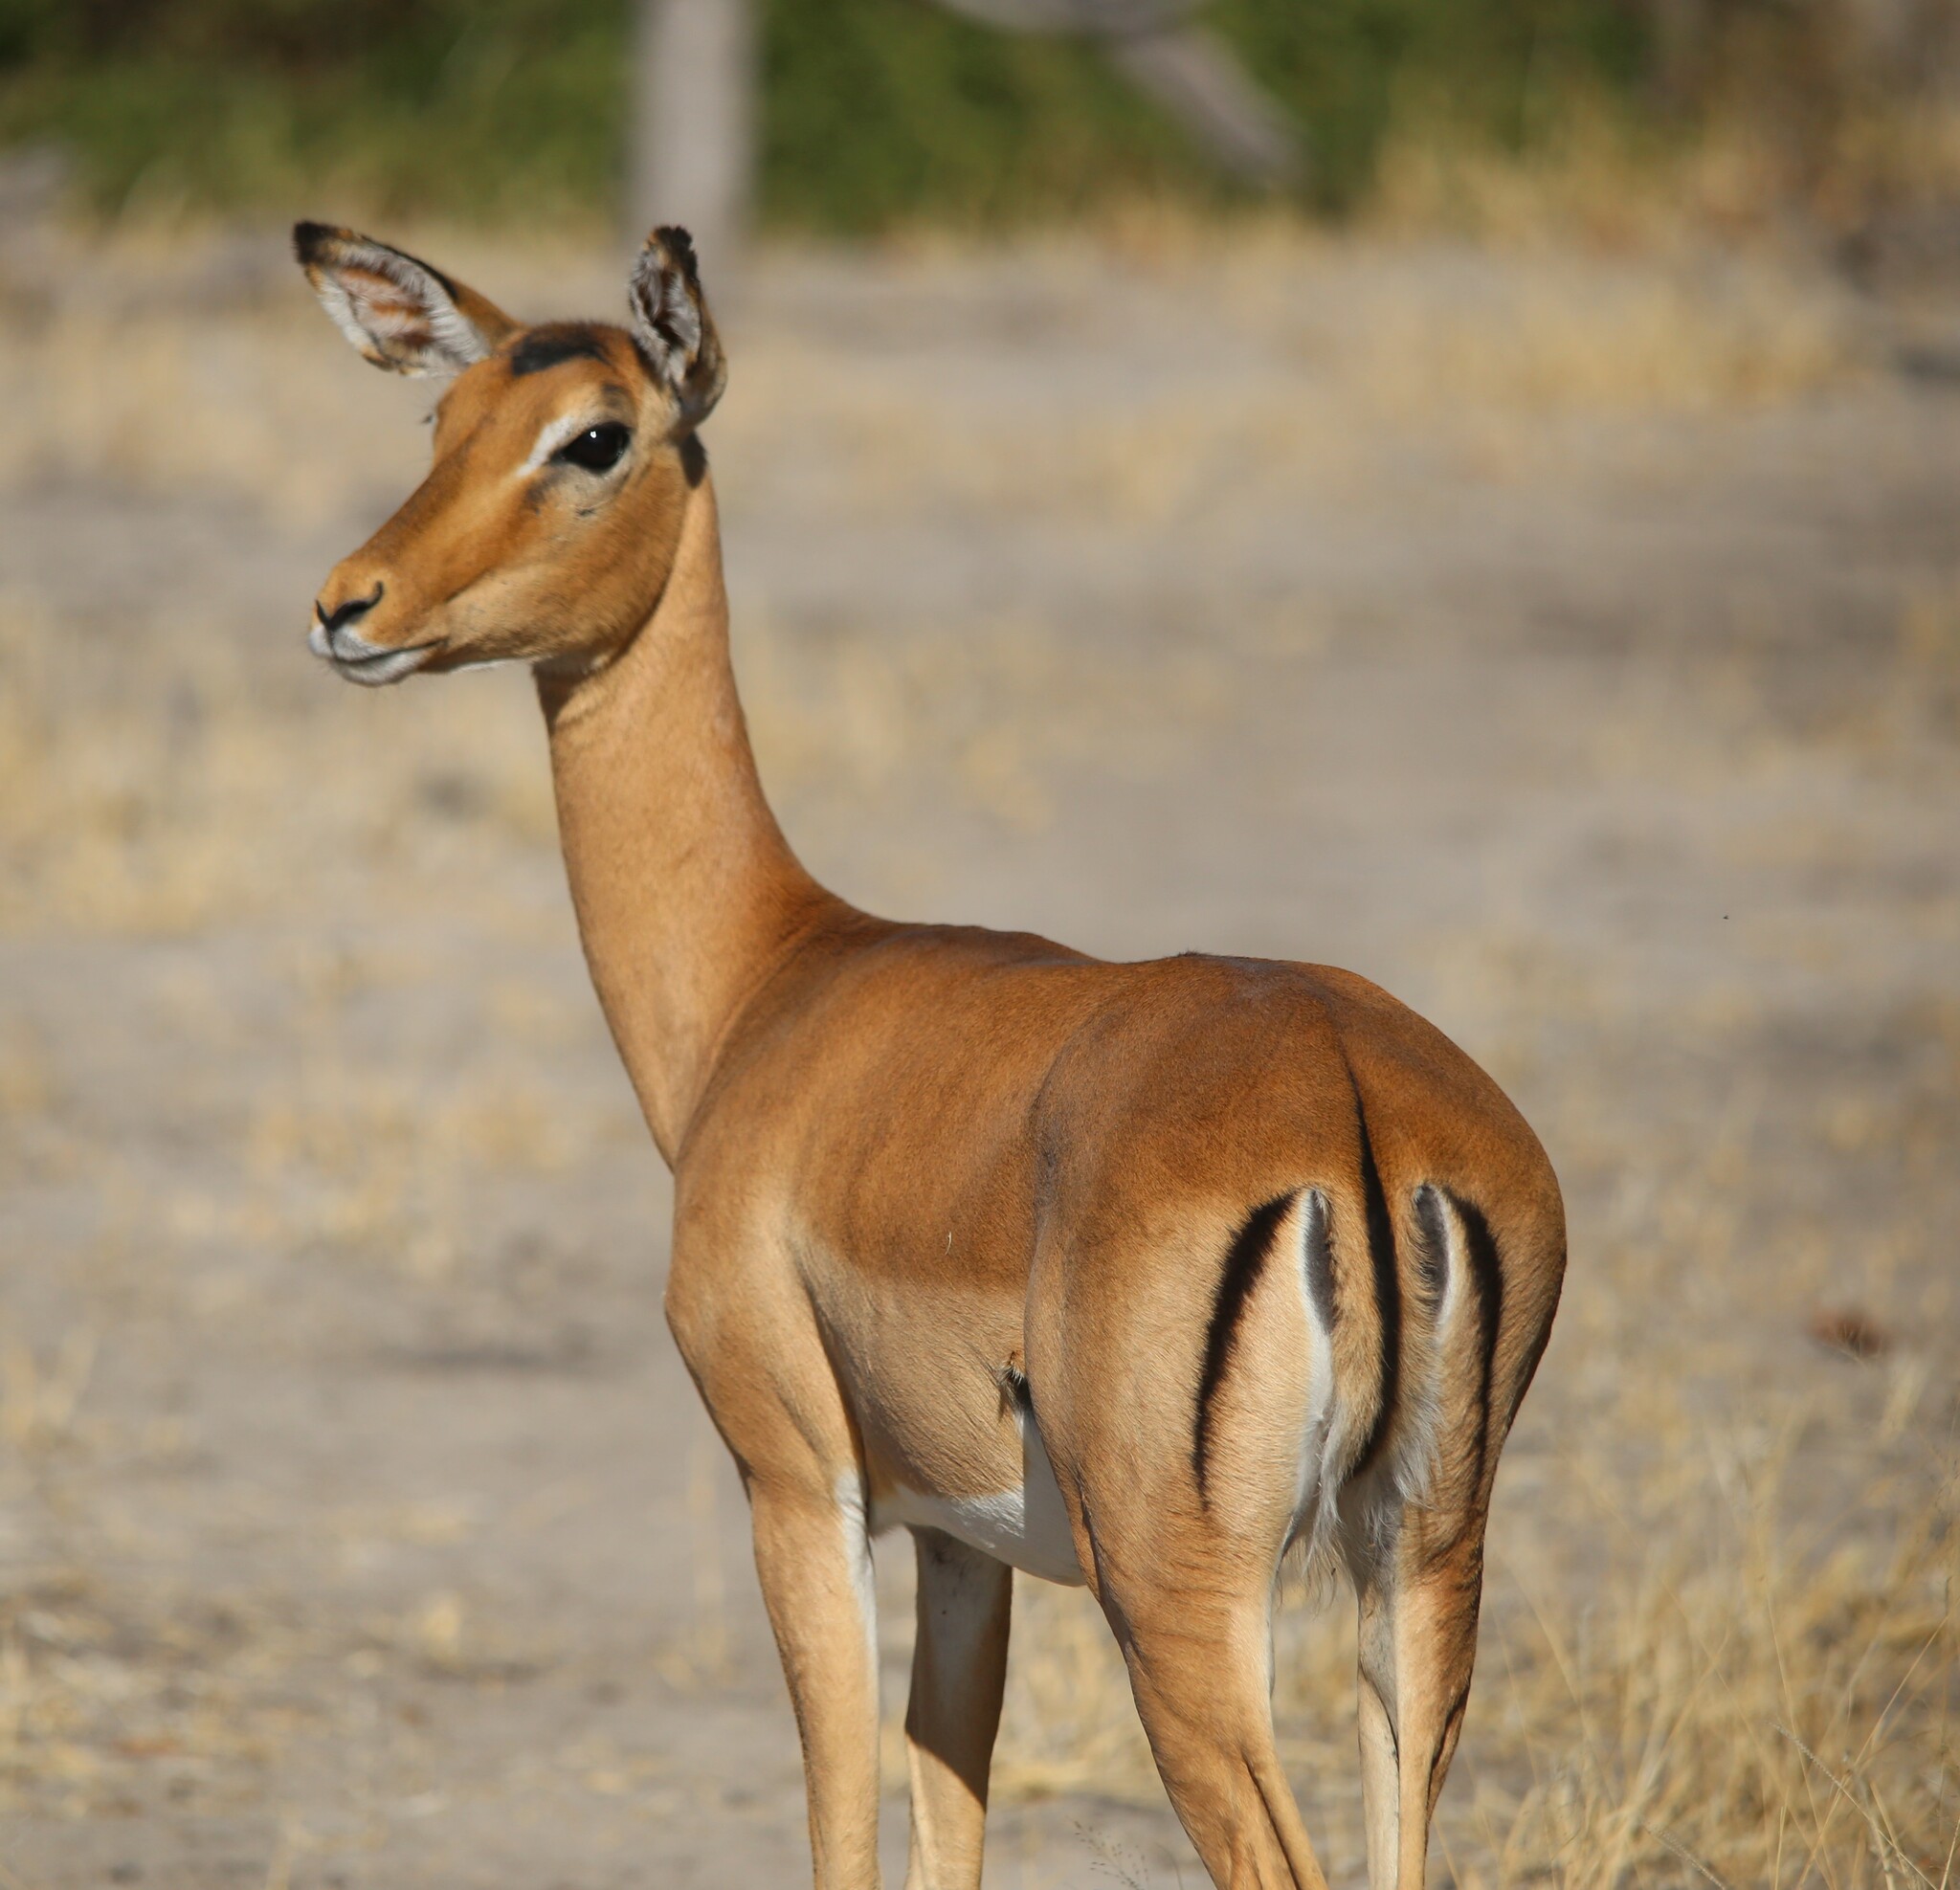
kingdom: Animalia
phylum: Chordata
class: Mammalia
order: Artiodactyla
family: Bovidae
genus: Aepyceros
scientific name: Aepyceros melampus
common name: Impala
